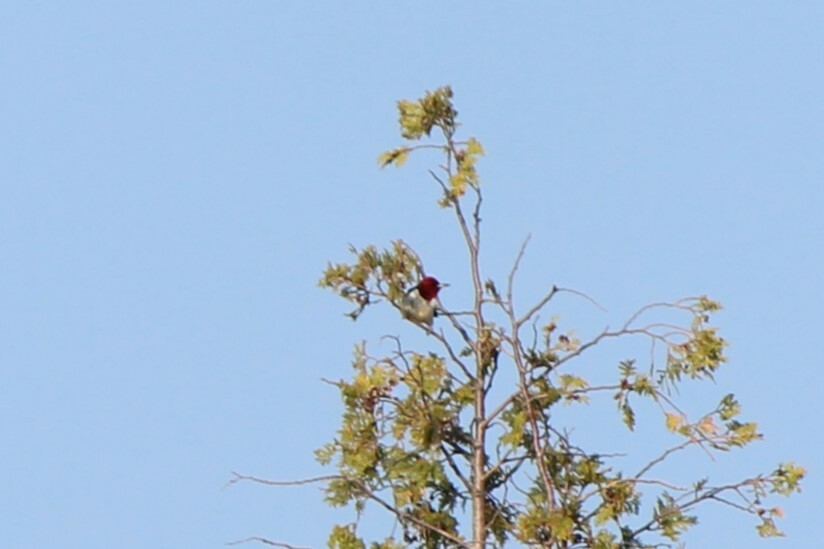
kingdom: Animalia
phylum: Chordata
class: Aves
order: Piciformes
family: Picidae
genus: Melanerpes
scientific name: Melanerpes erythrocephalus
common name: Red-headed woodpecker
